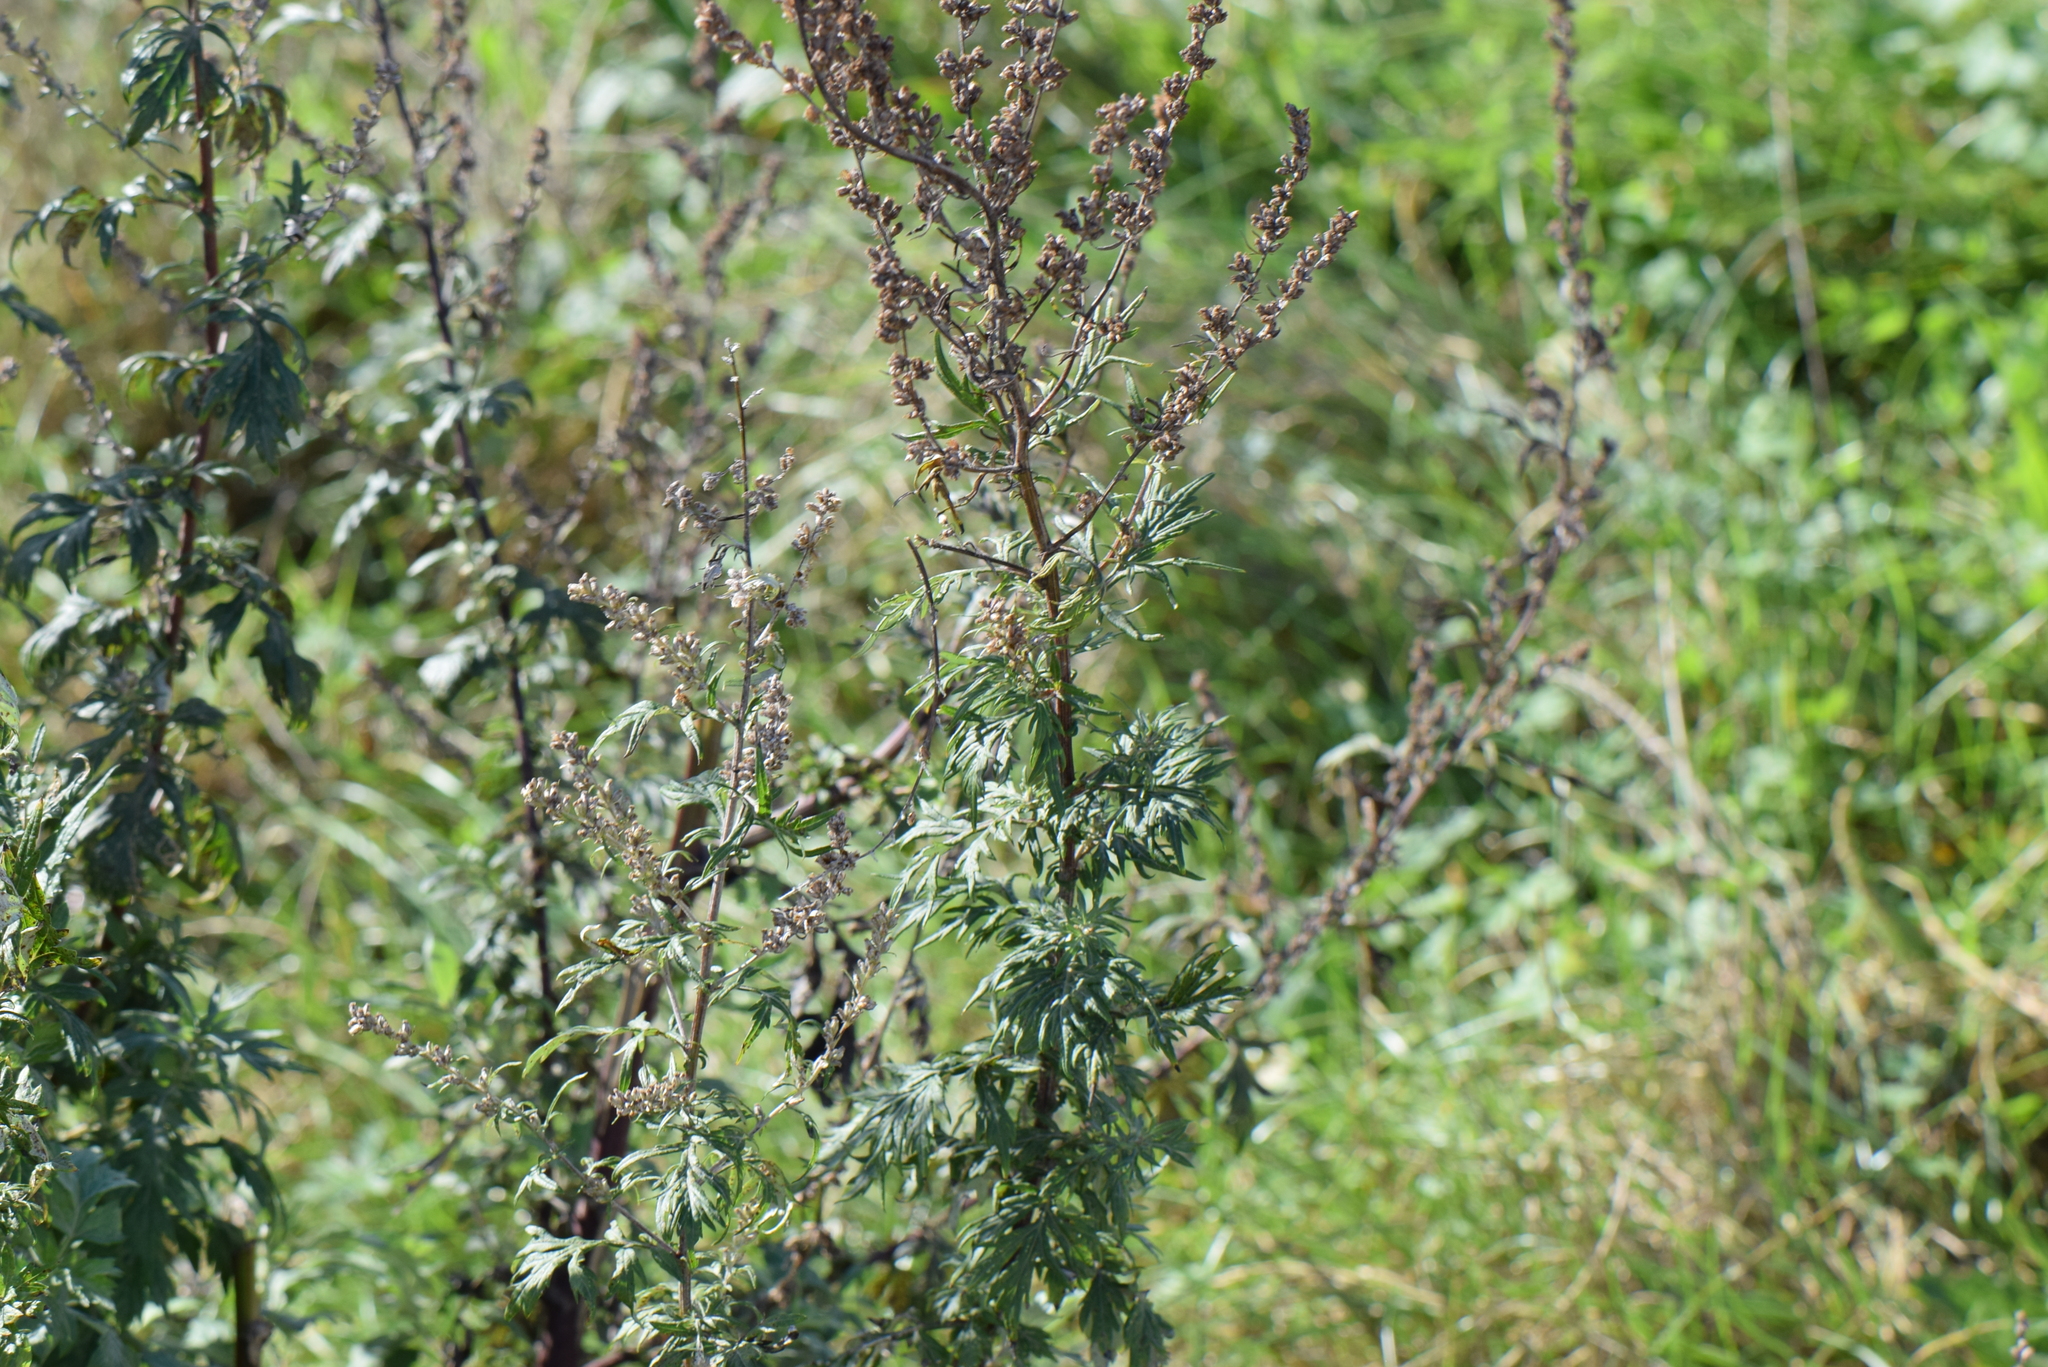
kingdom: Plantae
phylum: Tracheophyta
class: Magnoliopsida
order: Asterales
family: Asteraceae
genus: Artemisia
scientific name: Artemisia vulgaris
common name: Mugwort
